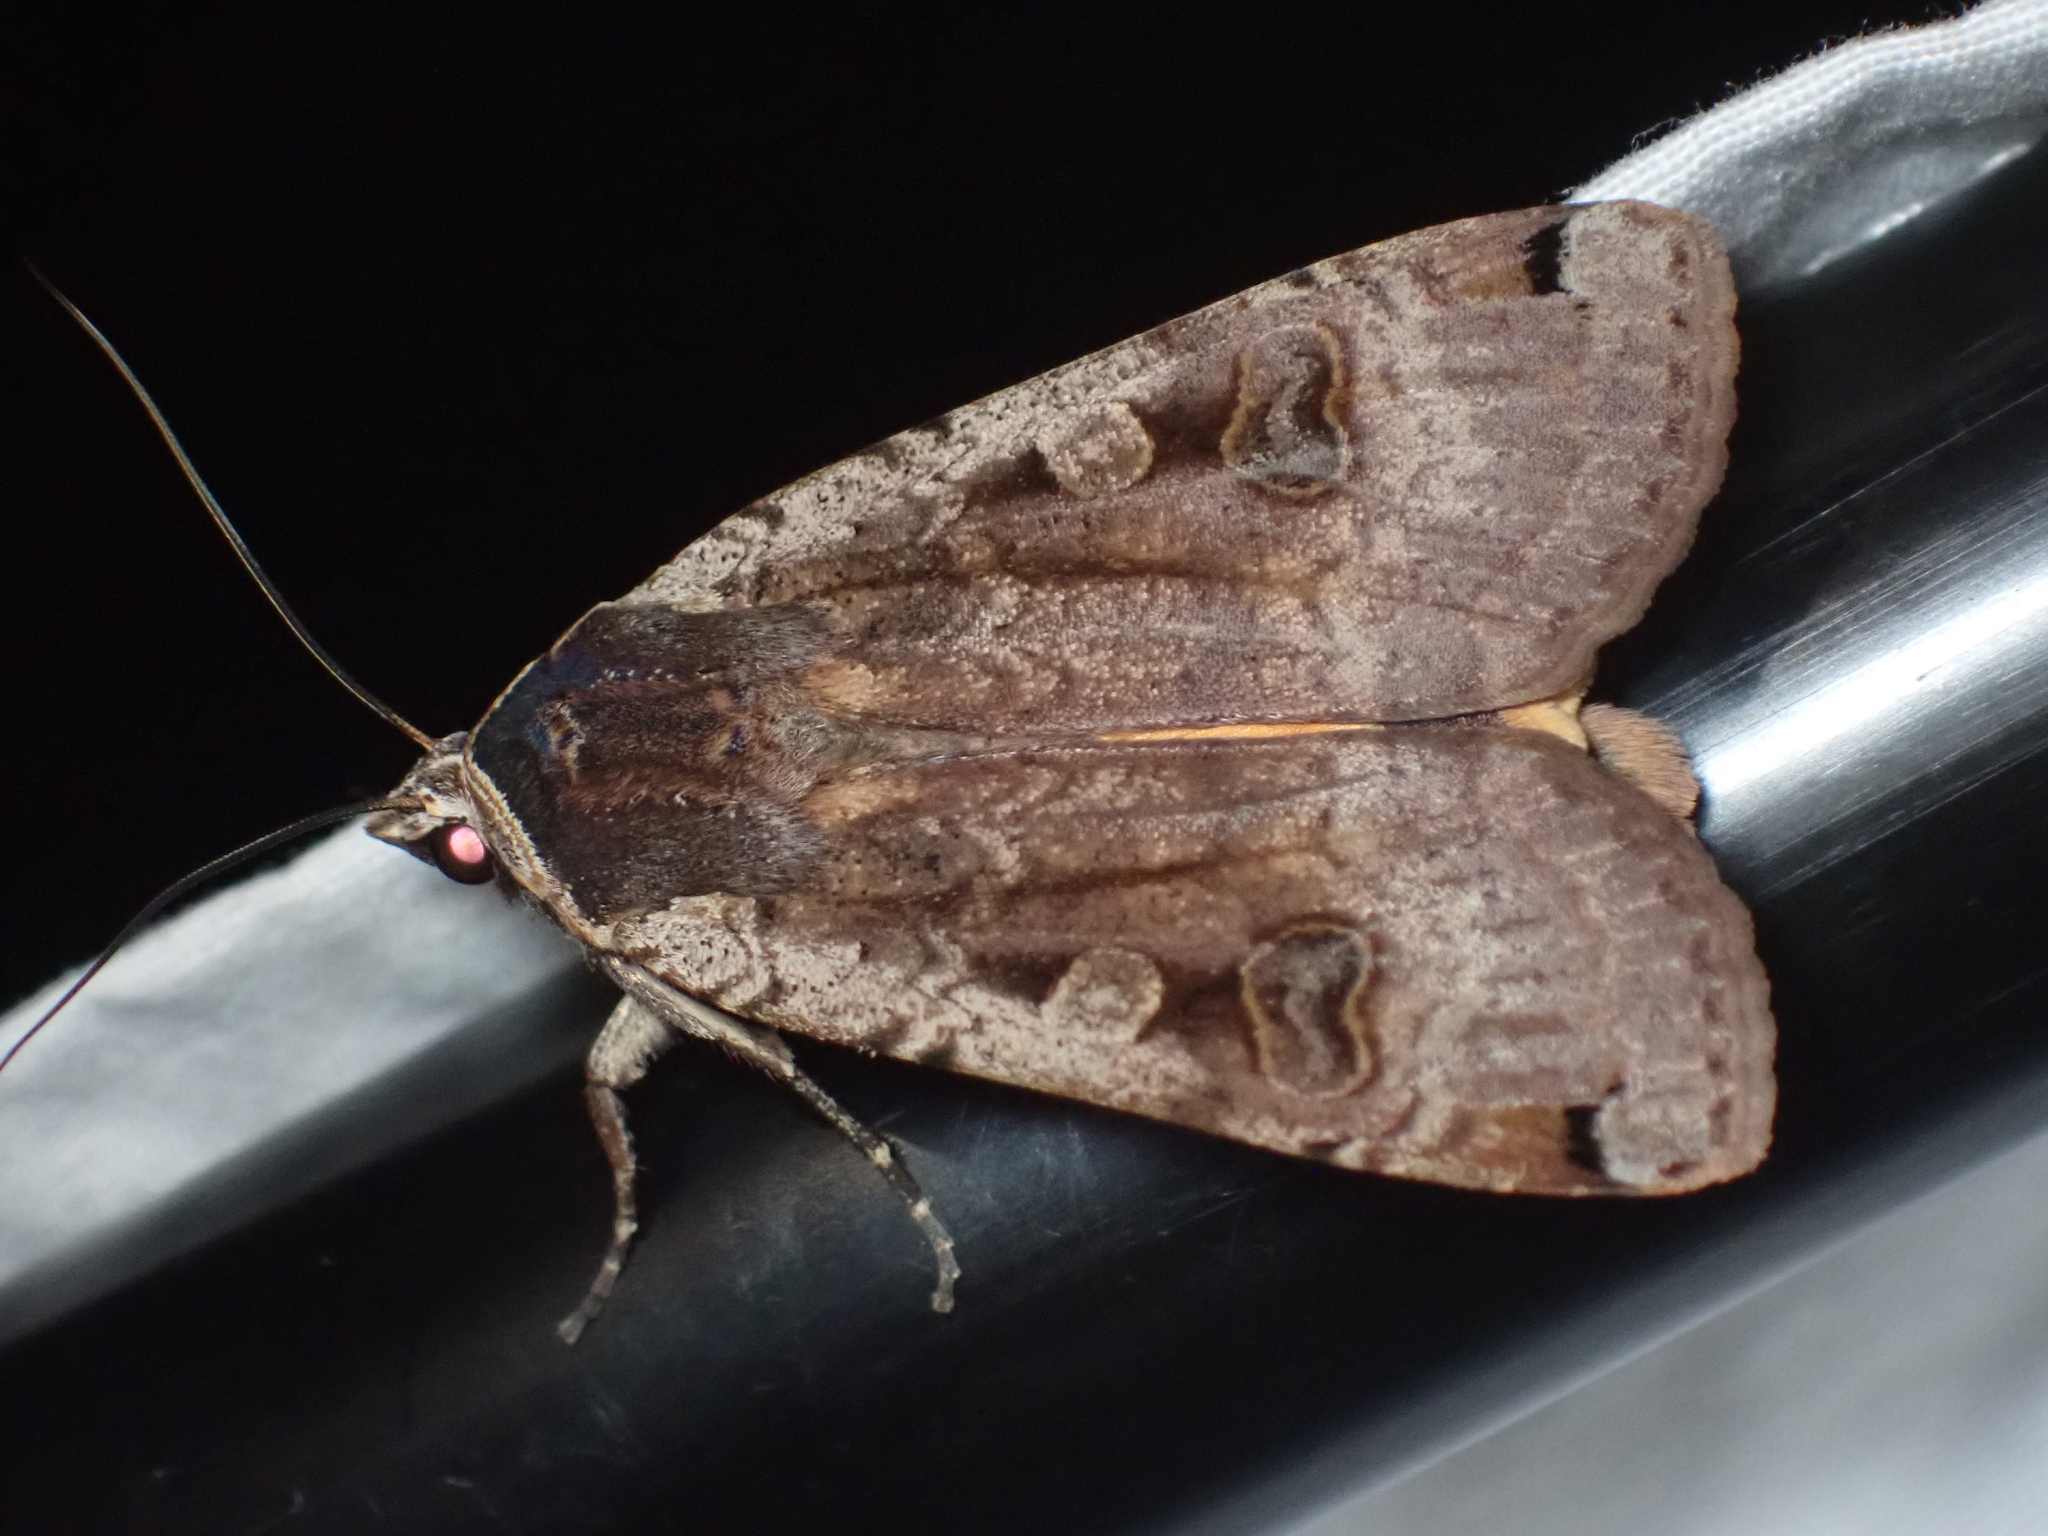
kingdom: Animalia
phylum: Arthropoda
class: Insecta
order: Lepidoptera
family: Noctuidae
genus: Noctua
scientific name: Noctua pronuba
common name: Large yellow underwing
